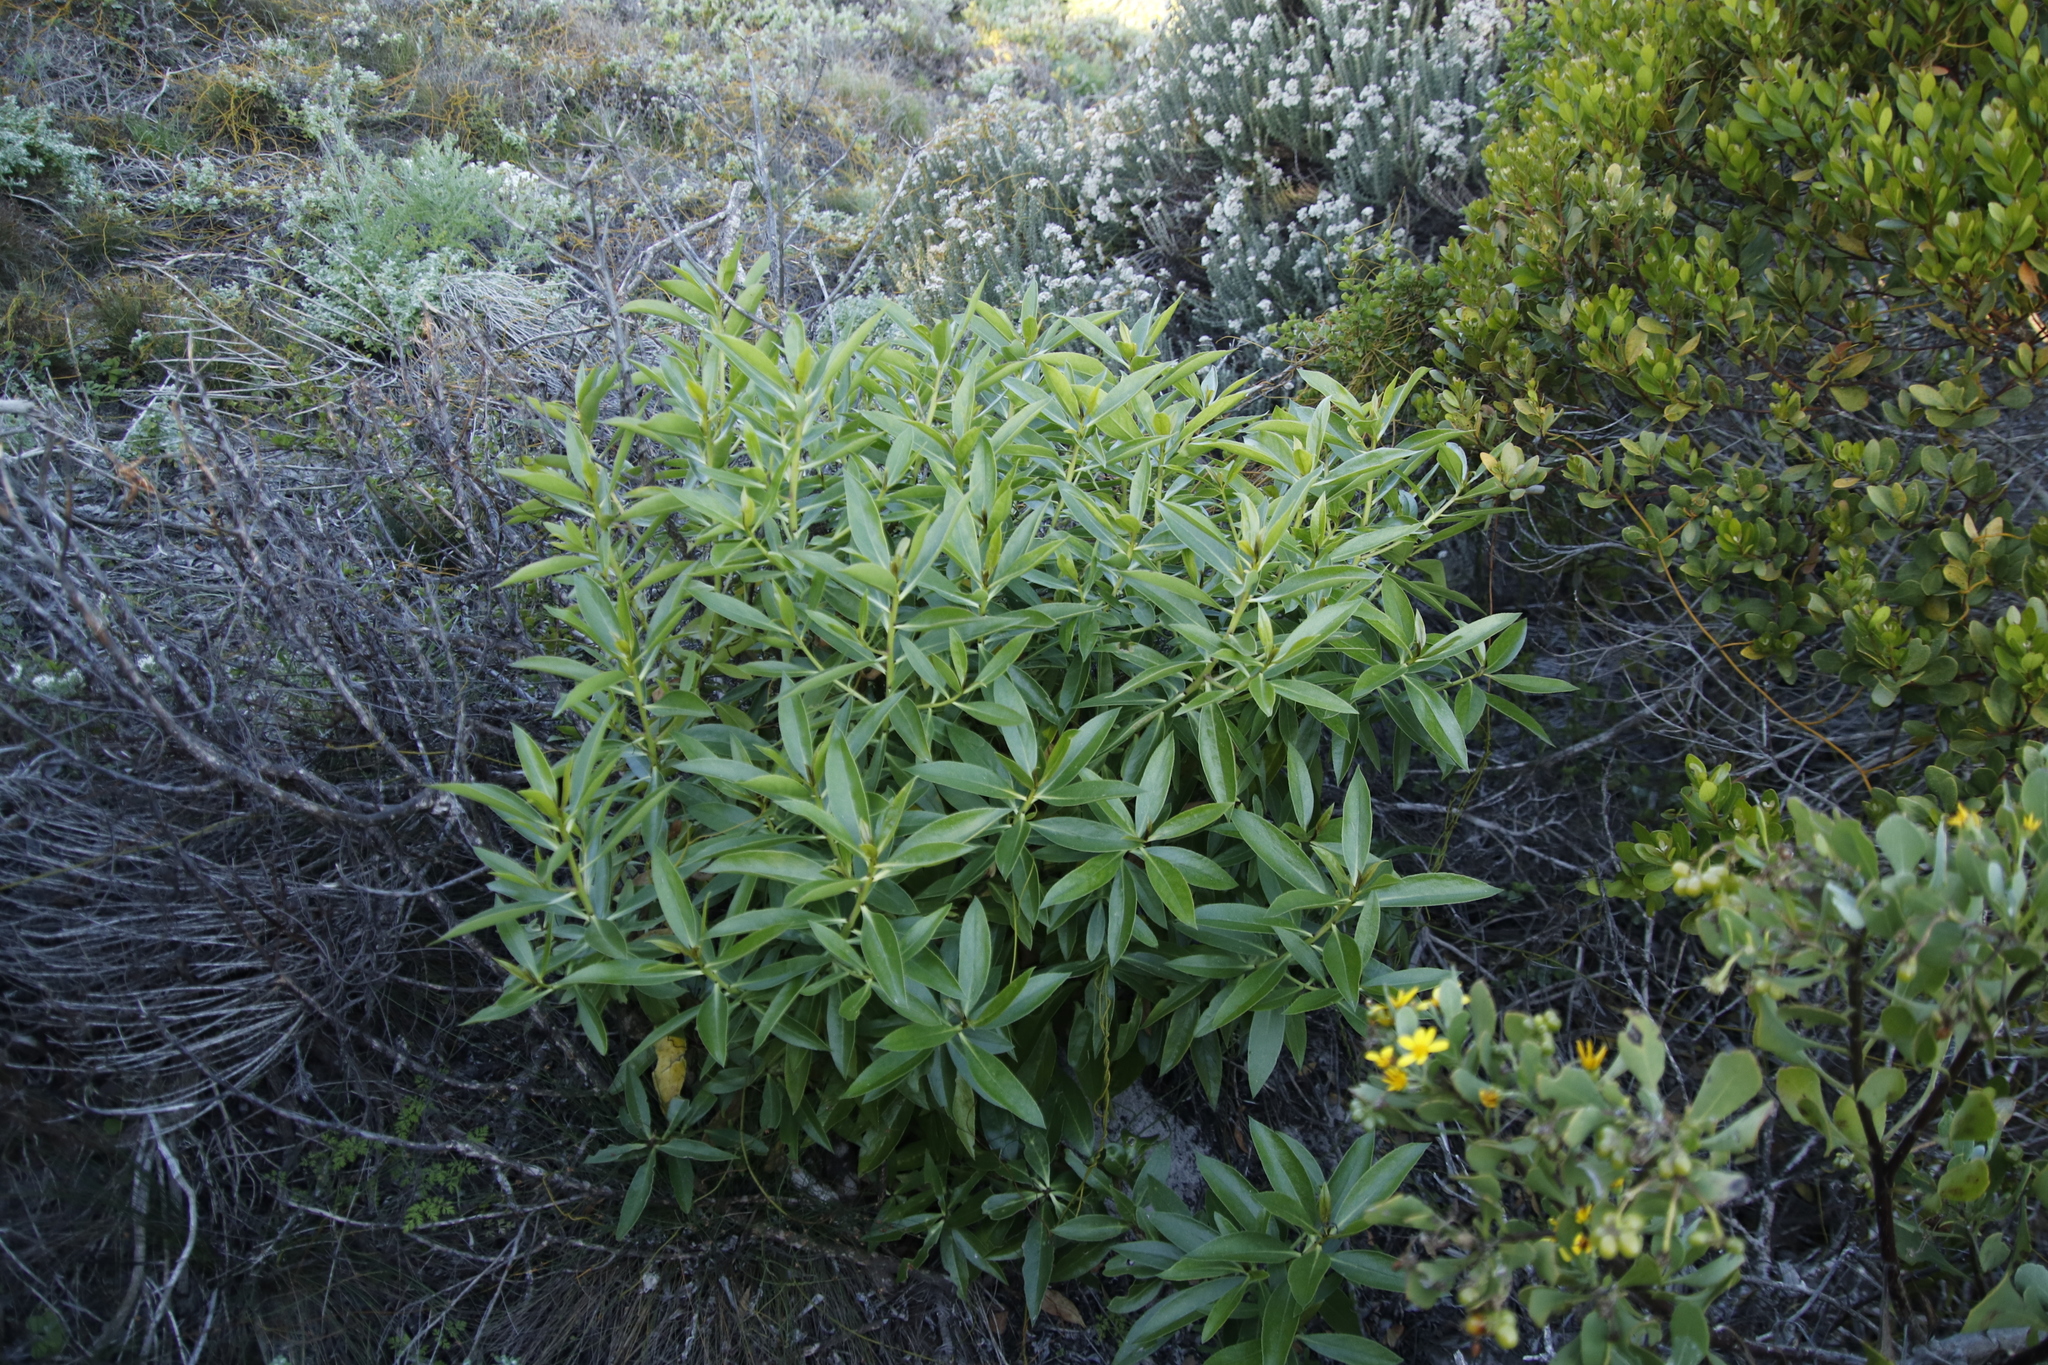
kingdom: Plantae
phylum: Tracheophyta
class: Magnoliopsida
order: Lamiales
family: Scrophulariaceae
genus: Myoporum
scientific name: Myoporum laetum
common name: Ngaio tree
